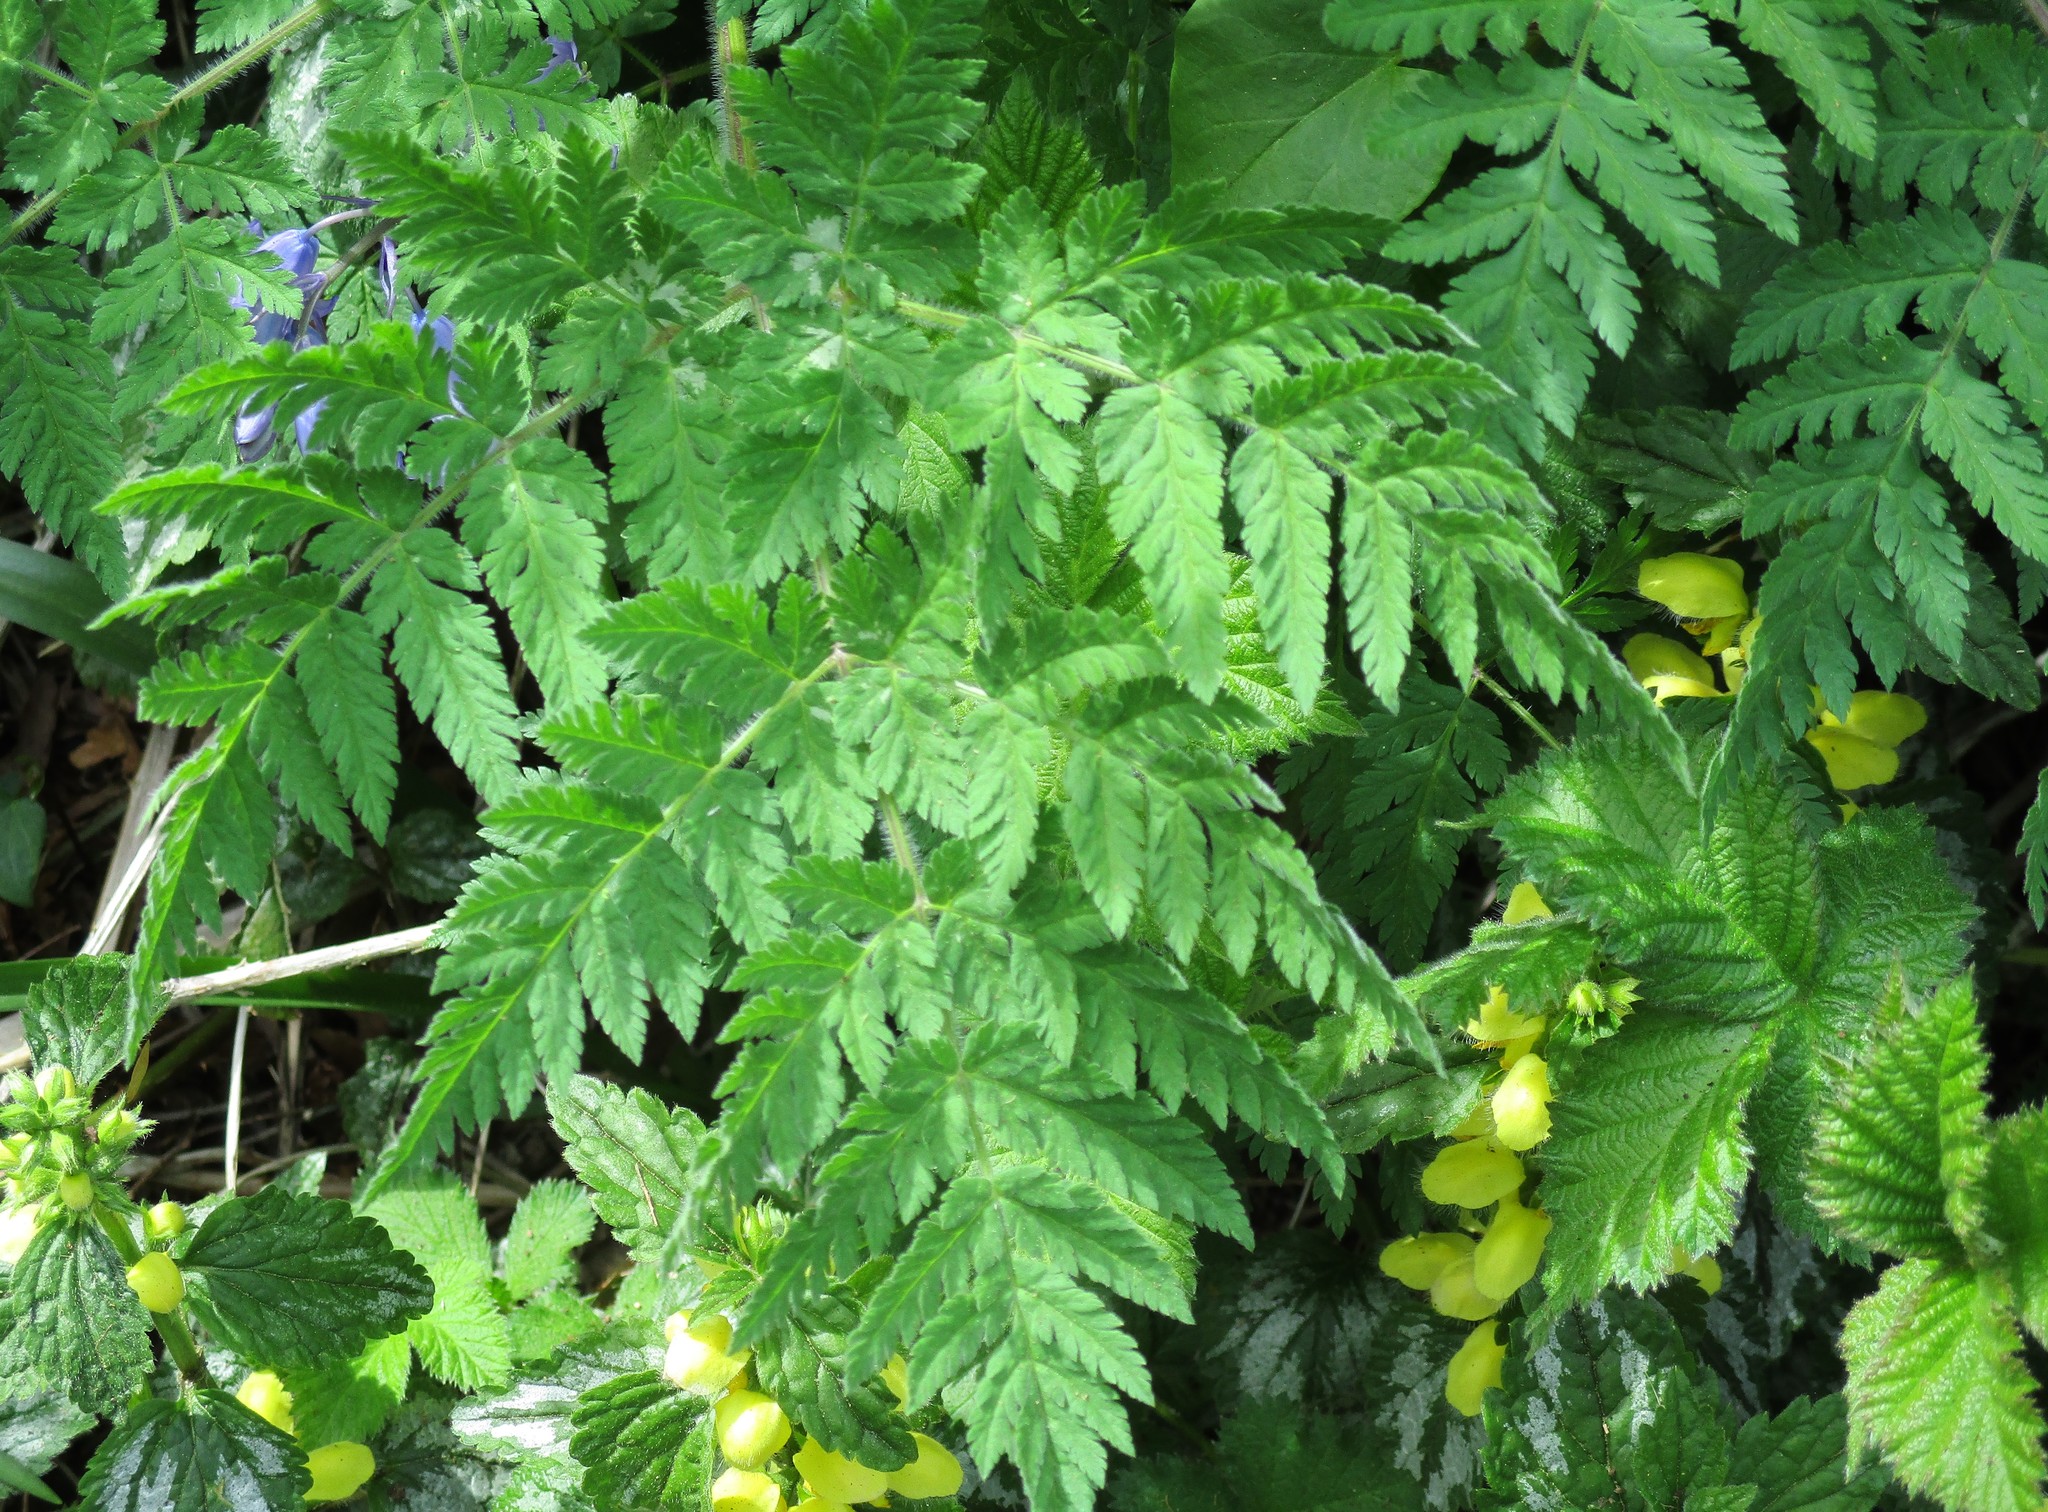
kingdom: Plantae
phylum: Tracheophyta
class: Magnoliopsida
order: Apiales
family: Apiaceae
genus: Myrrhis
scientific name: Myrrhis odorata
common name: Sweet cicely
